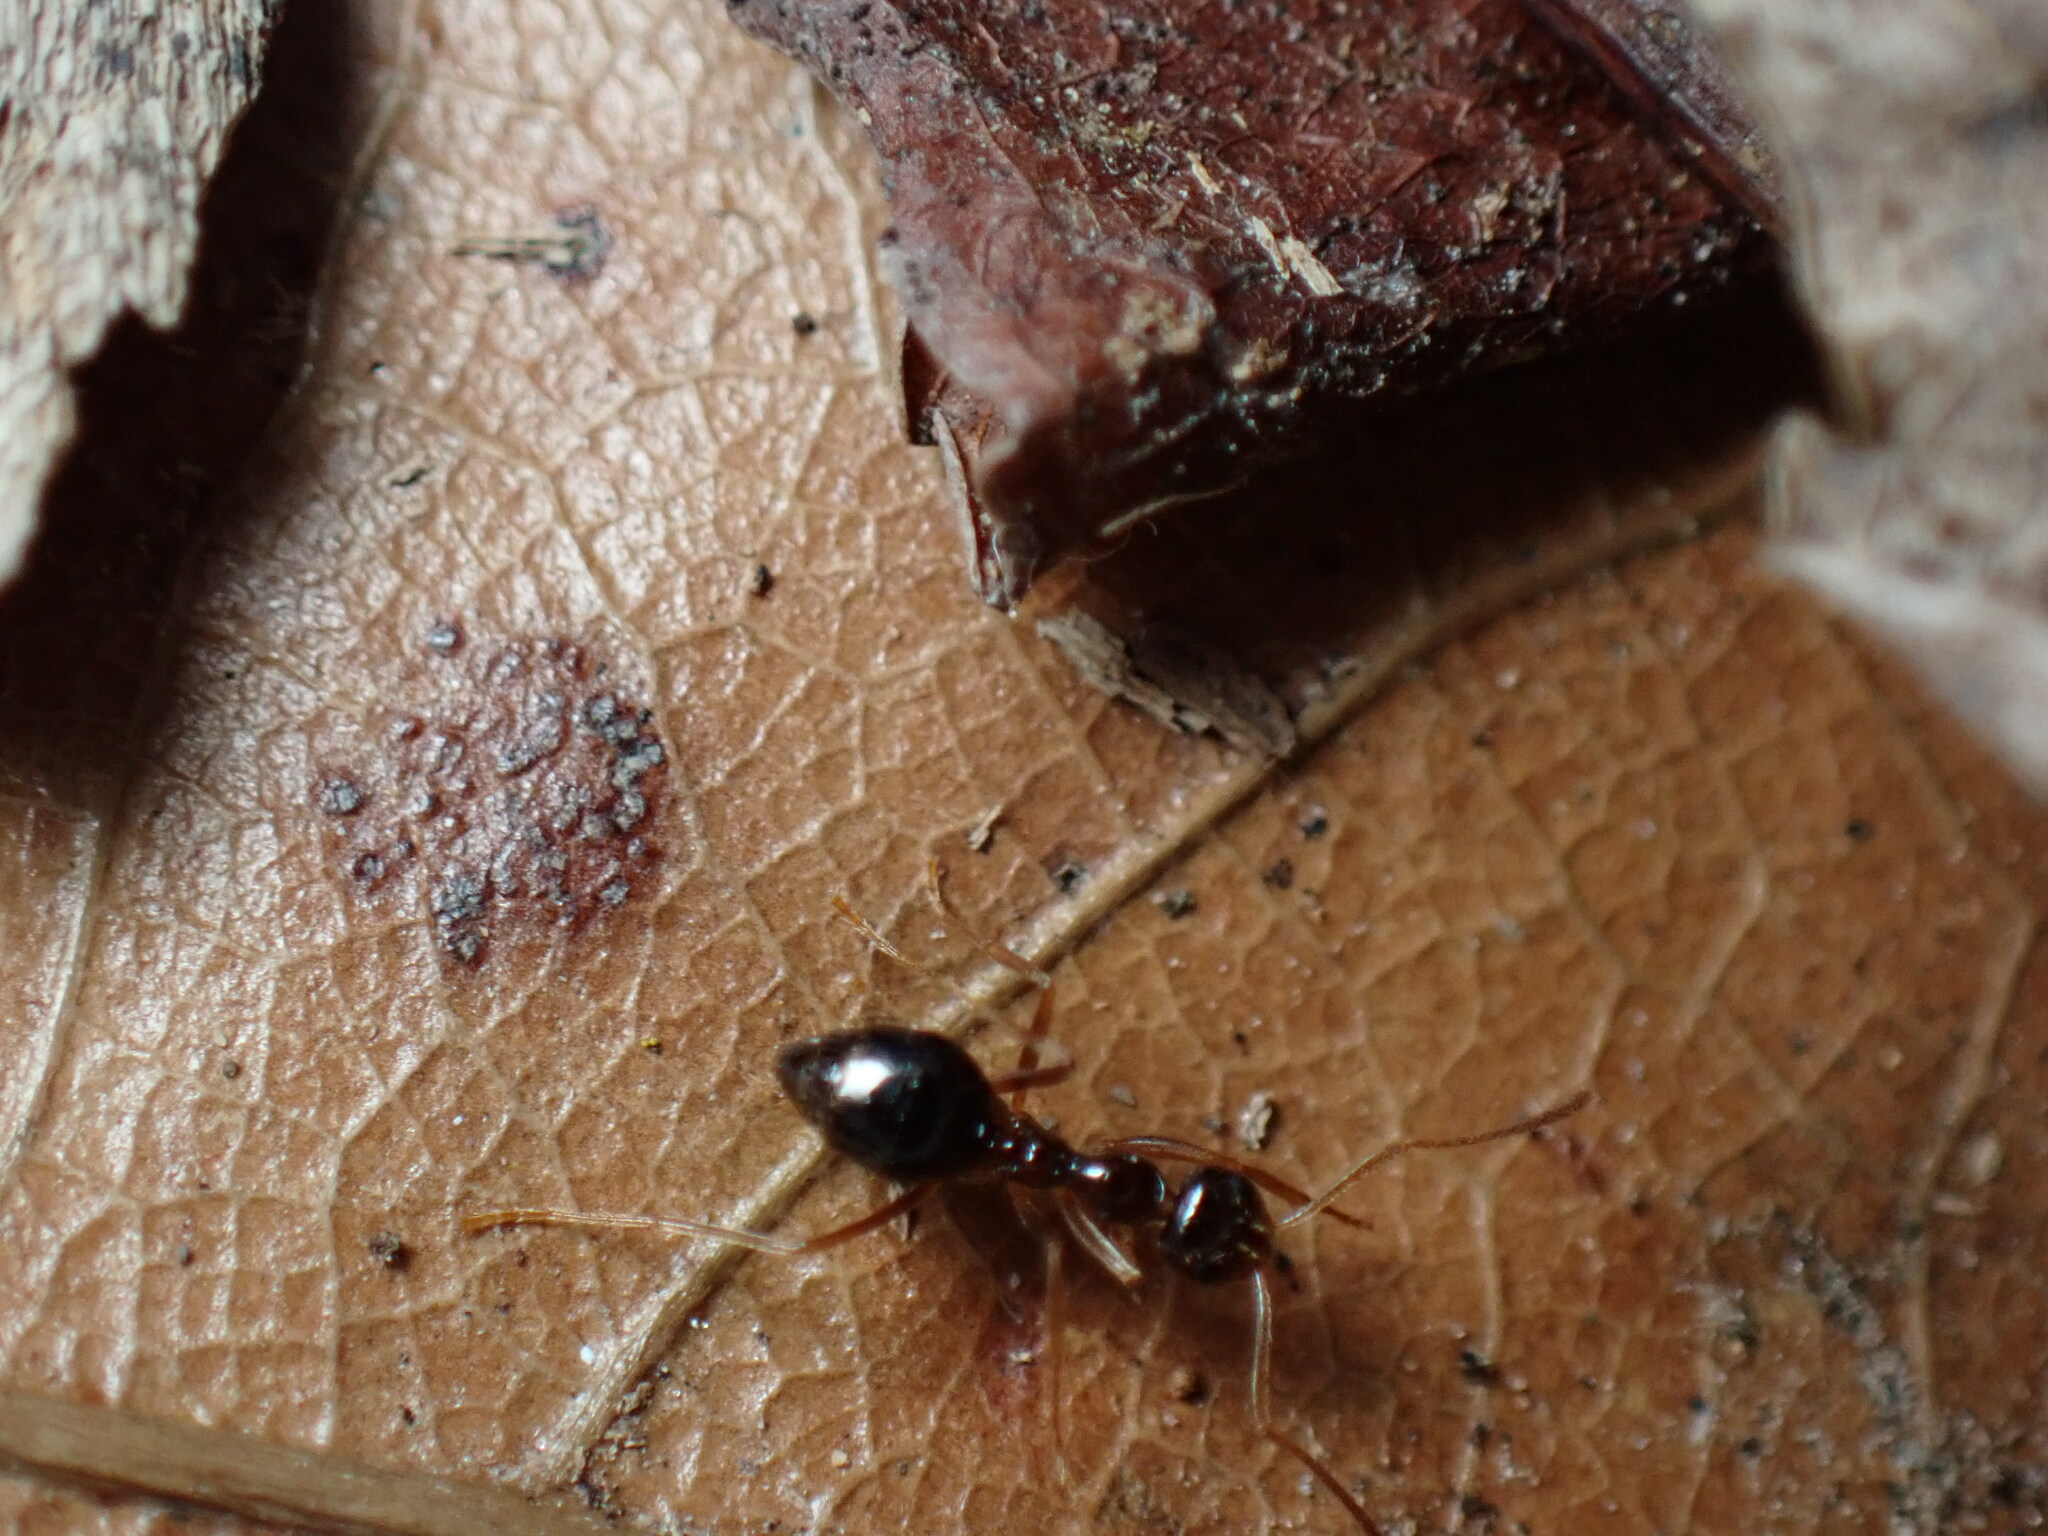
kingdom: Animalia
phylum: Arthropoda
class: Insecta
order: Hymenoptera
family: Formicidae
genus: Prenolepis
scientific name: Prenolepis imparis
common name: Small honey ant
